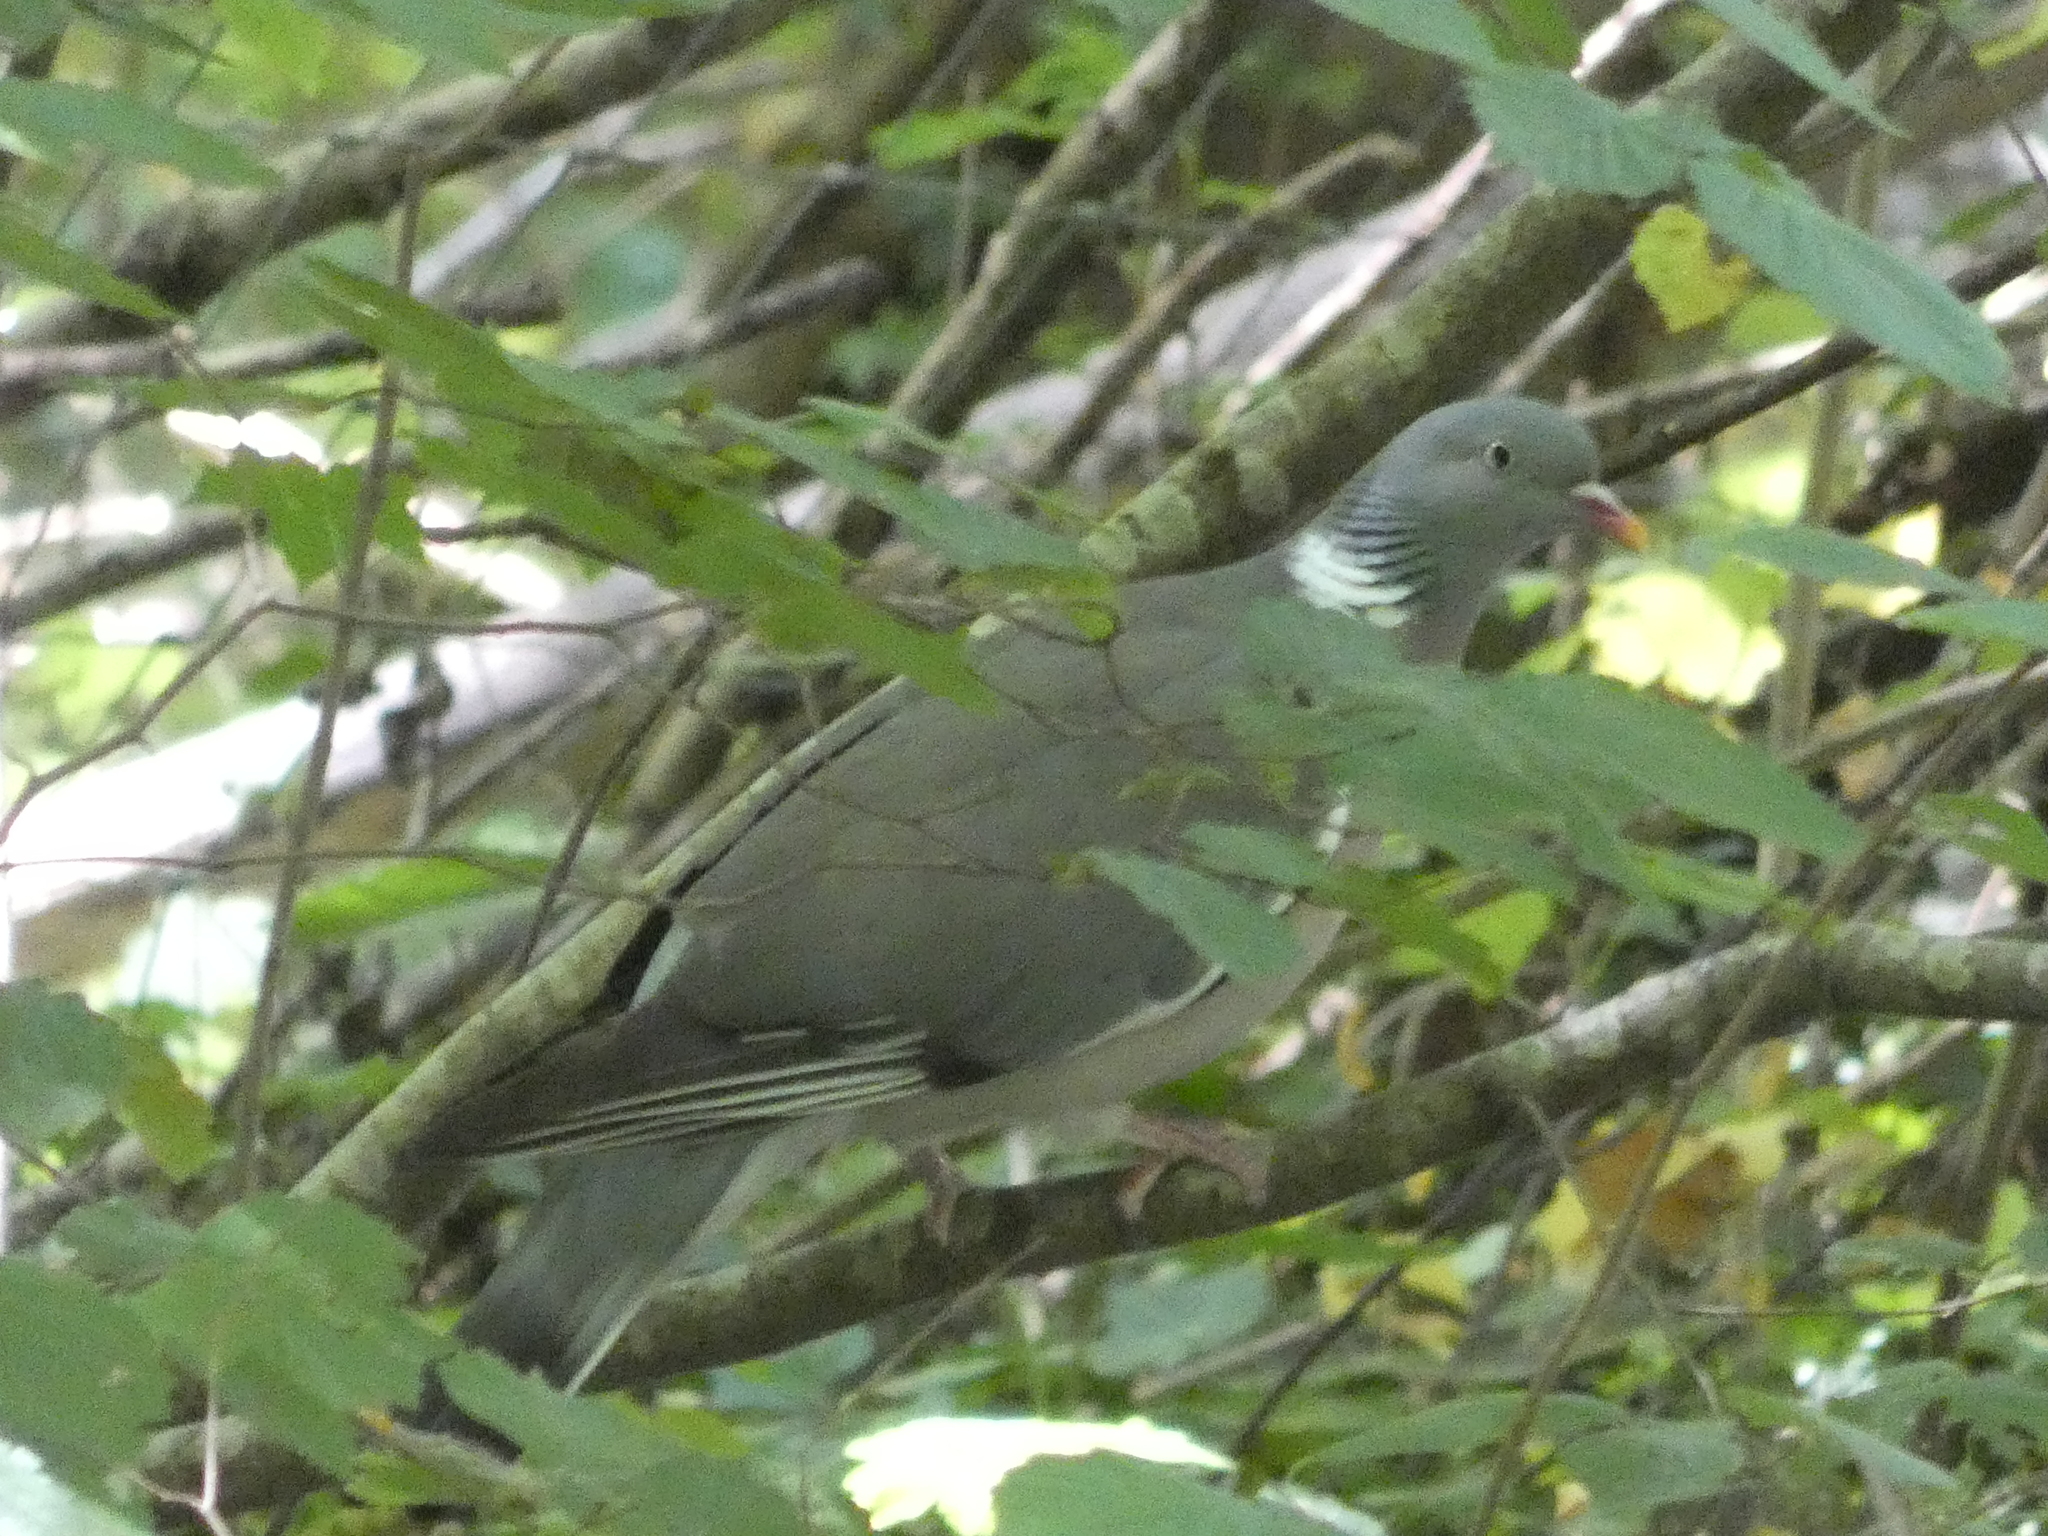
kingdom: Animalia
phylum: Chordata
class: Aves
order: Columbiformes
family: Columbidae
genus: Columba
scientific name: Columba palumbus
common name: Common wood pigeon
